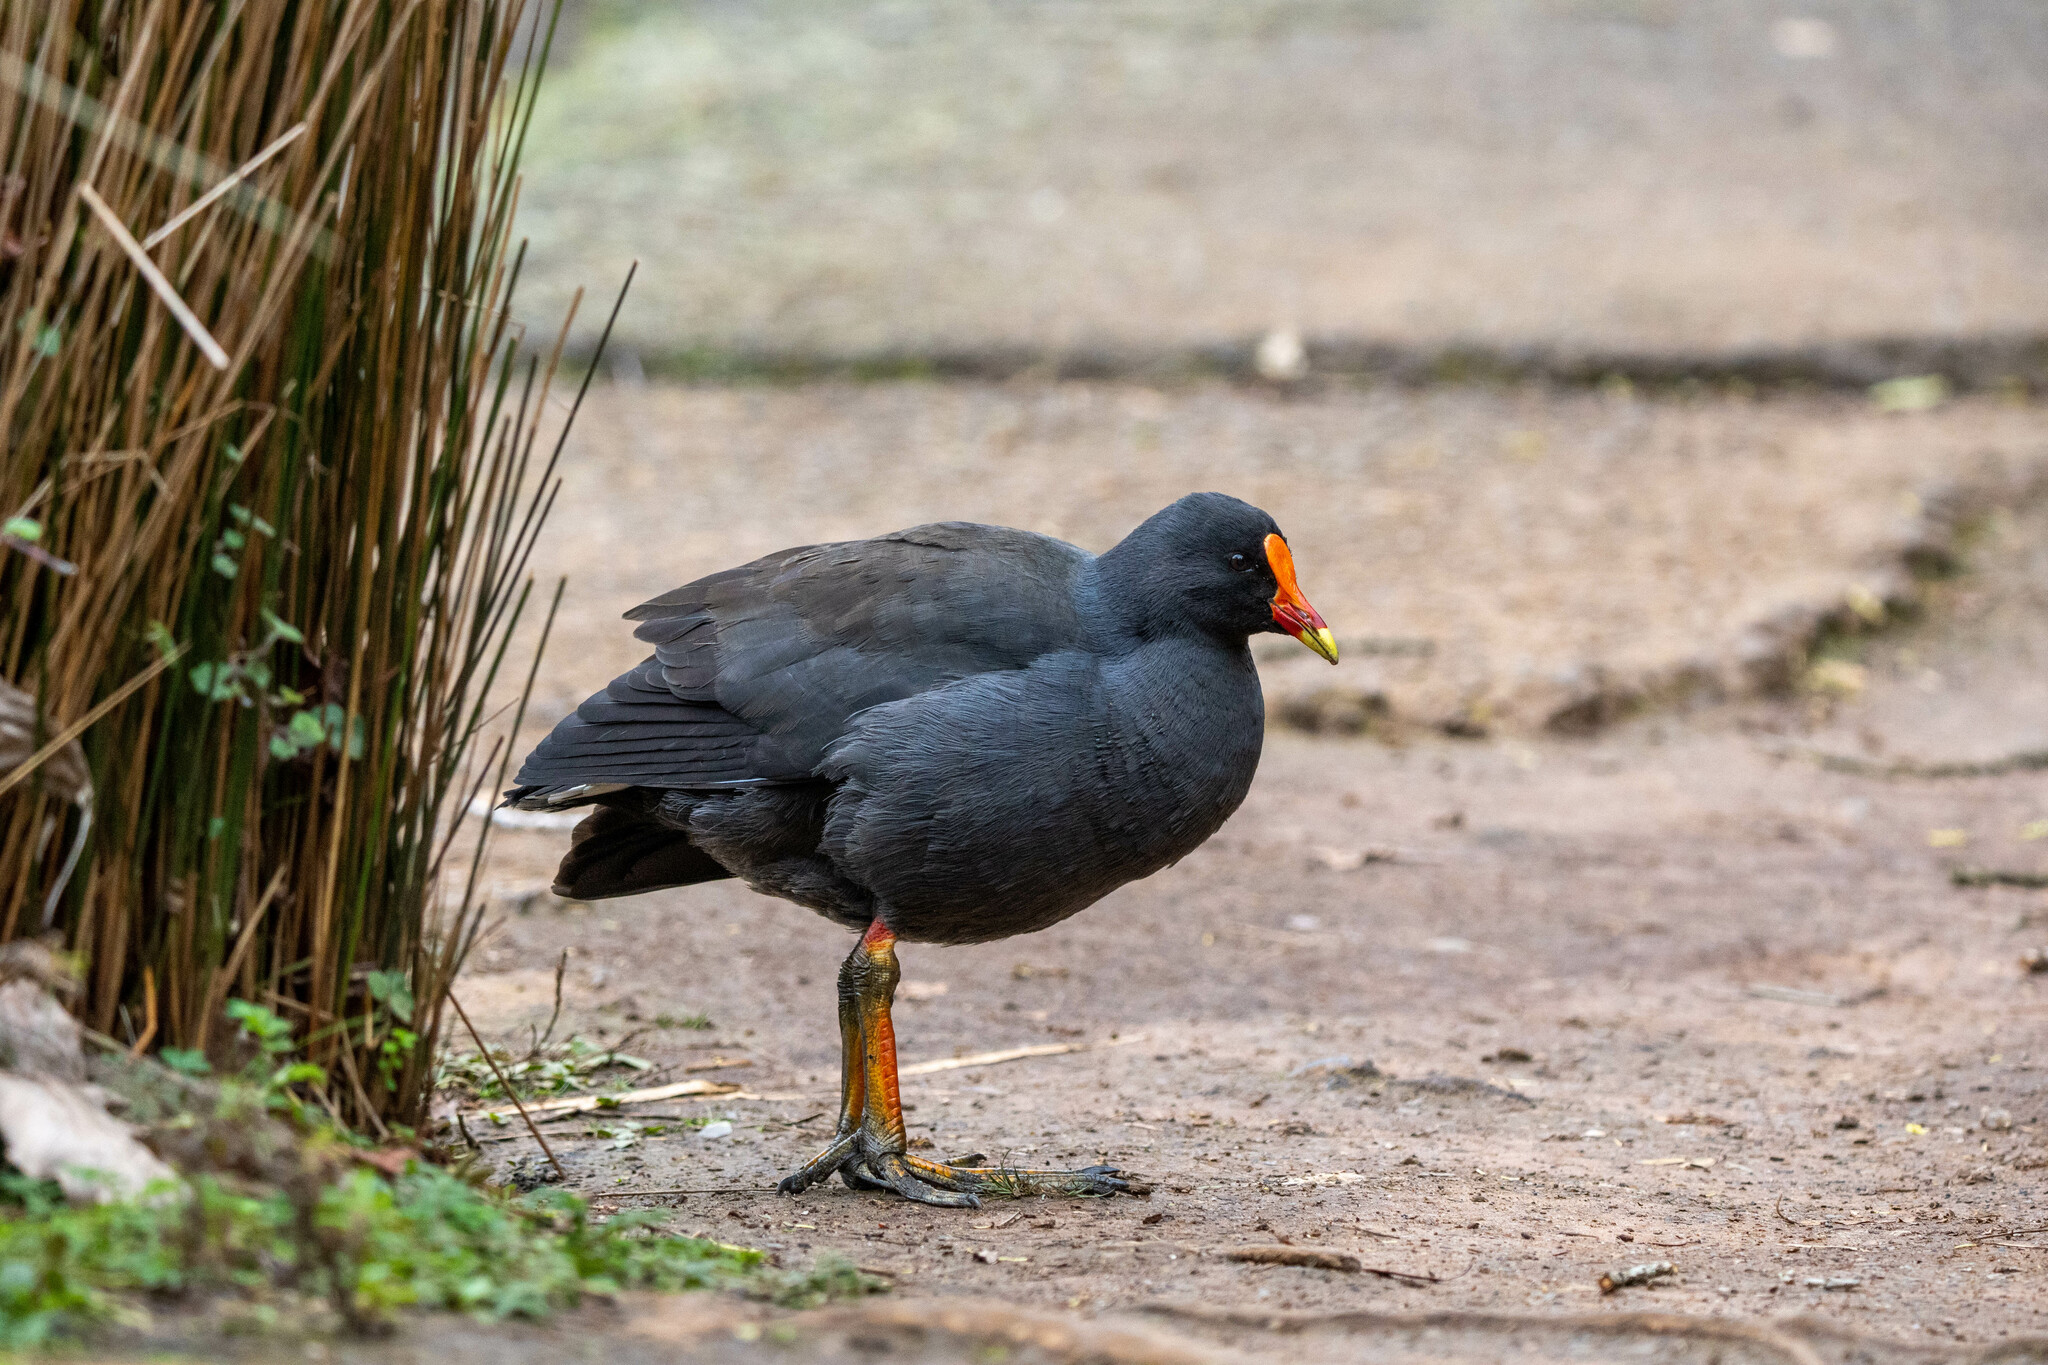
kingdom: Animalia
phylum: Chordata
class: Aves
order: Gruiformes
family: Rallidae
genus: Gallinula
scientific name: Gallinula tenebrosa
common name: Dusky moorhen
